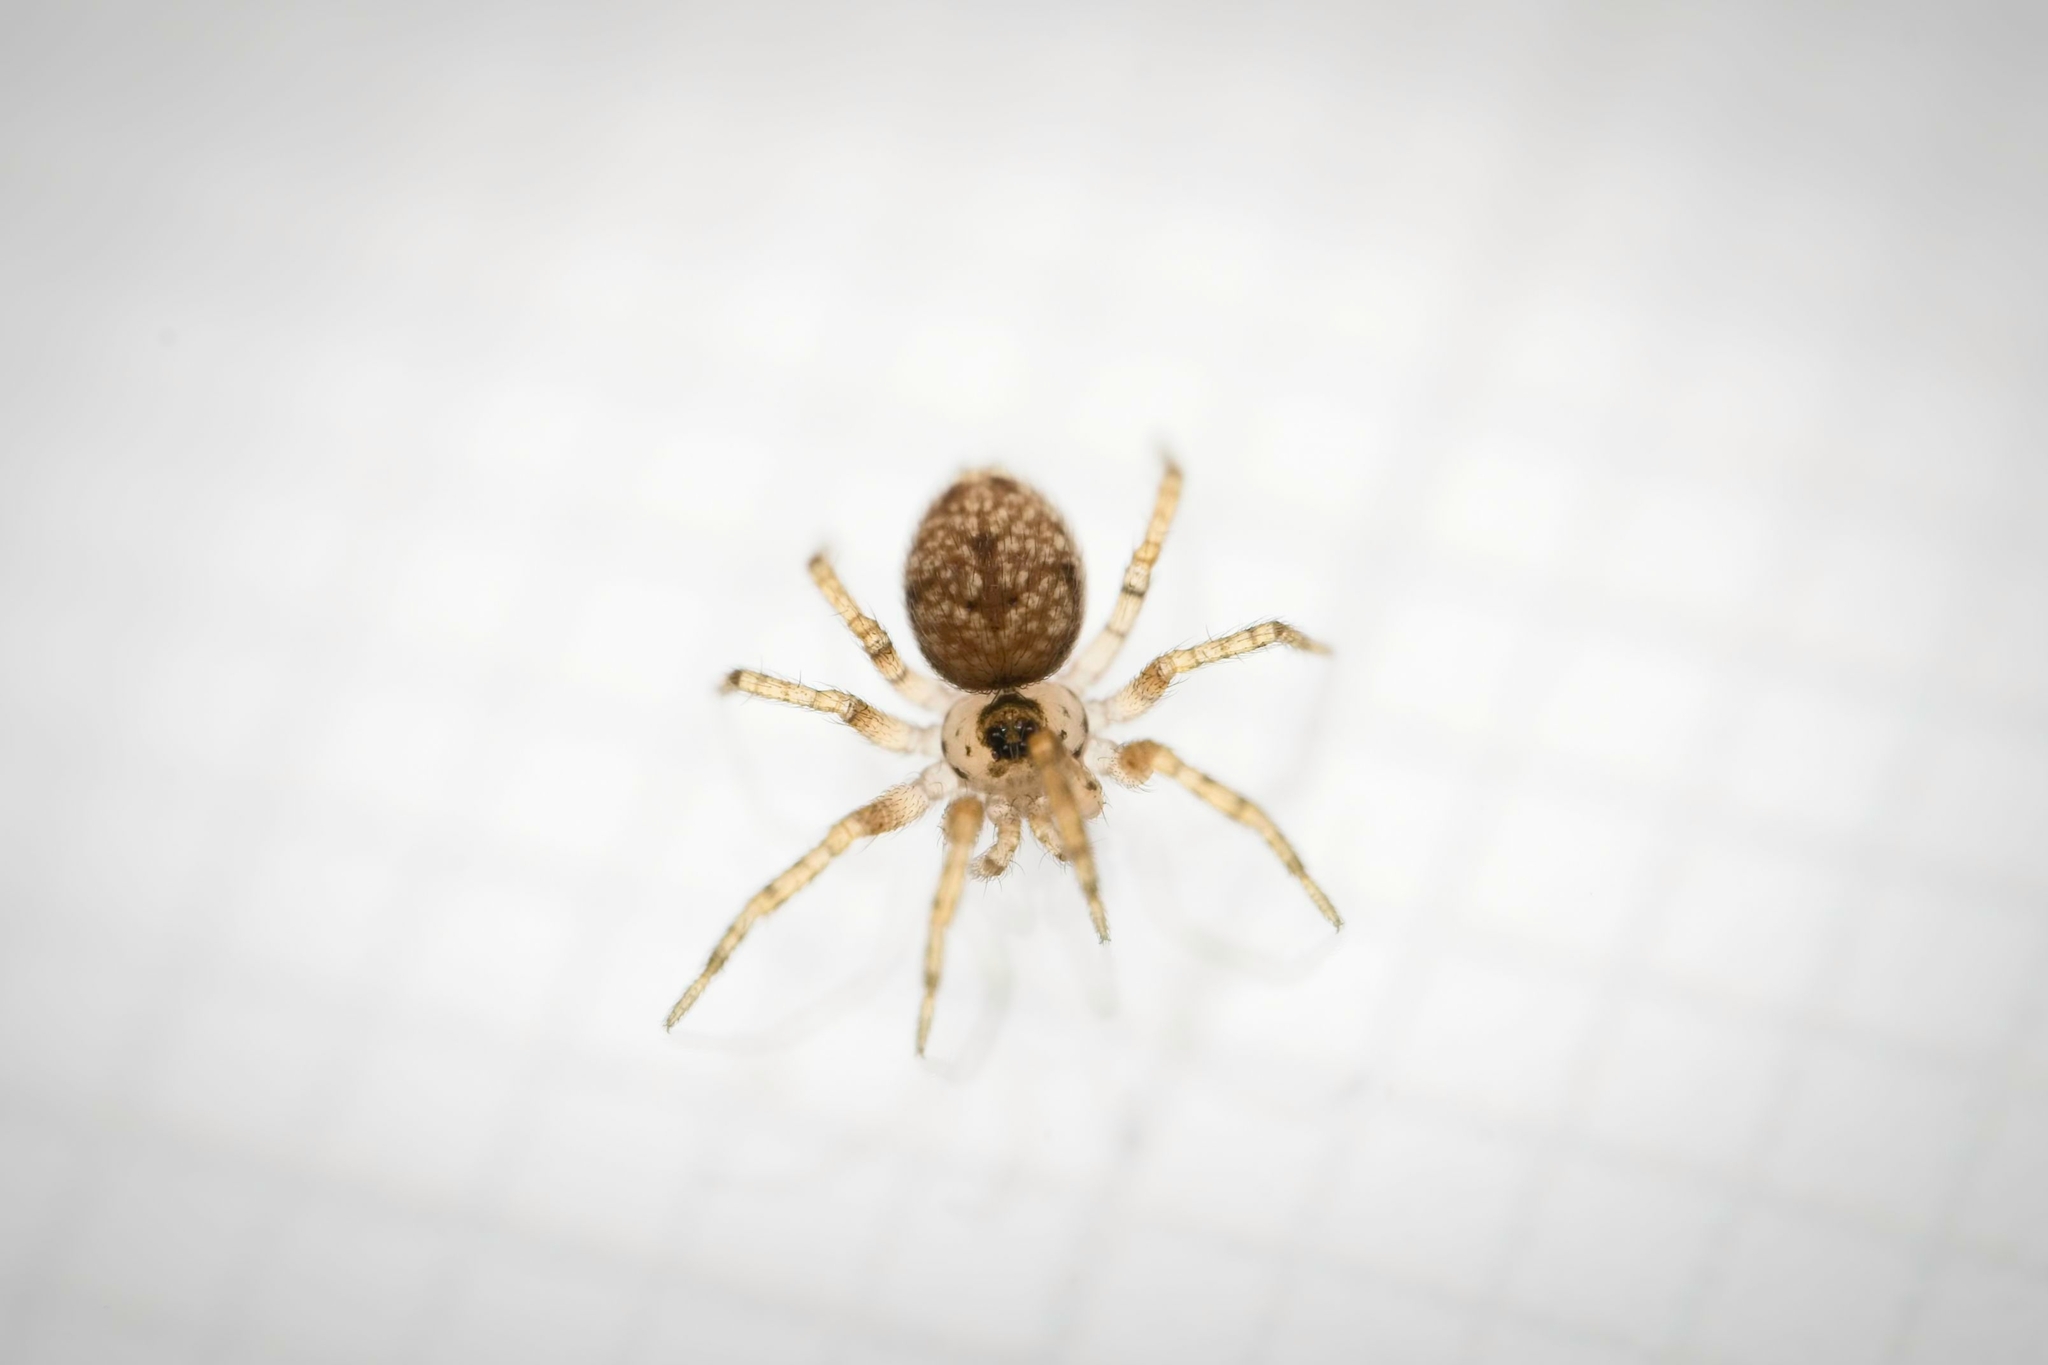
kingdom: Animalia
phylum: Arthropoda
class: Arachnida
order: Araneae
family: Oecobiidae
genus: Oecobius
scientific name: Oecobius navus
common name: Flatmesh weaver
